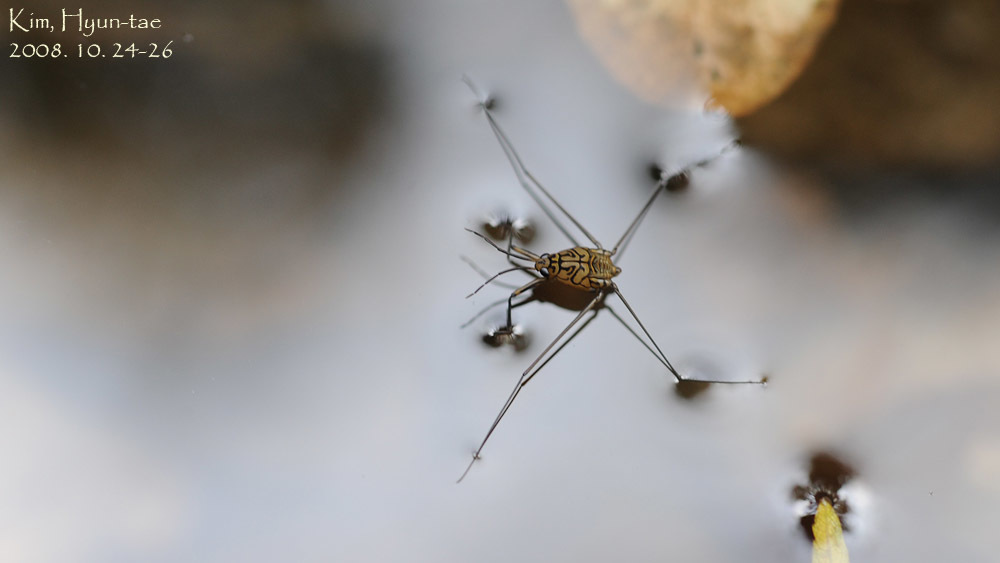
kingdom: Animalia
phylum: Arthropoda
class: Insecta
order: Hemiptera
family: Gerridae
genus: Metrocoris
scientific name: Metrocoris histrio
